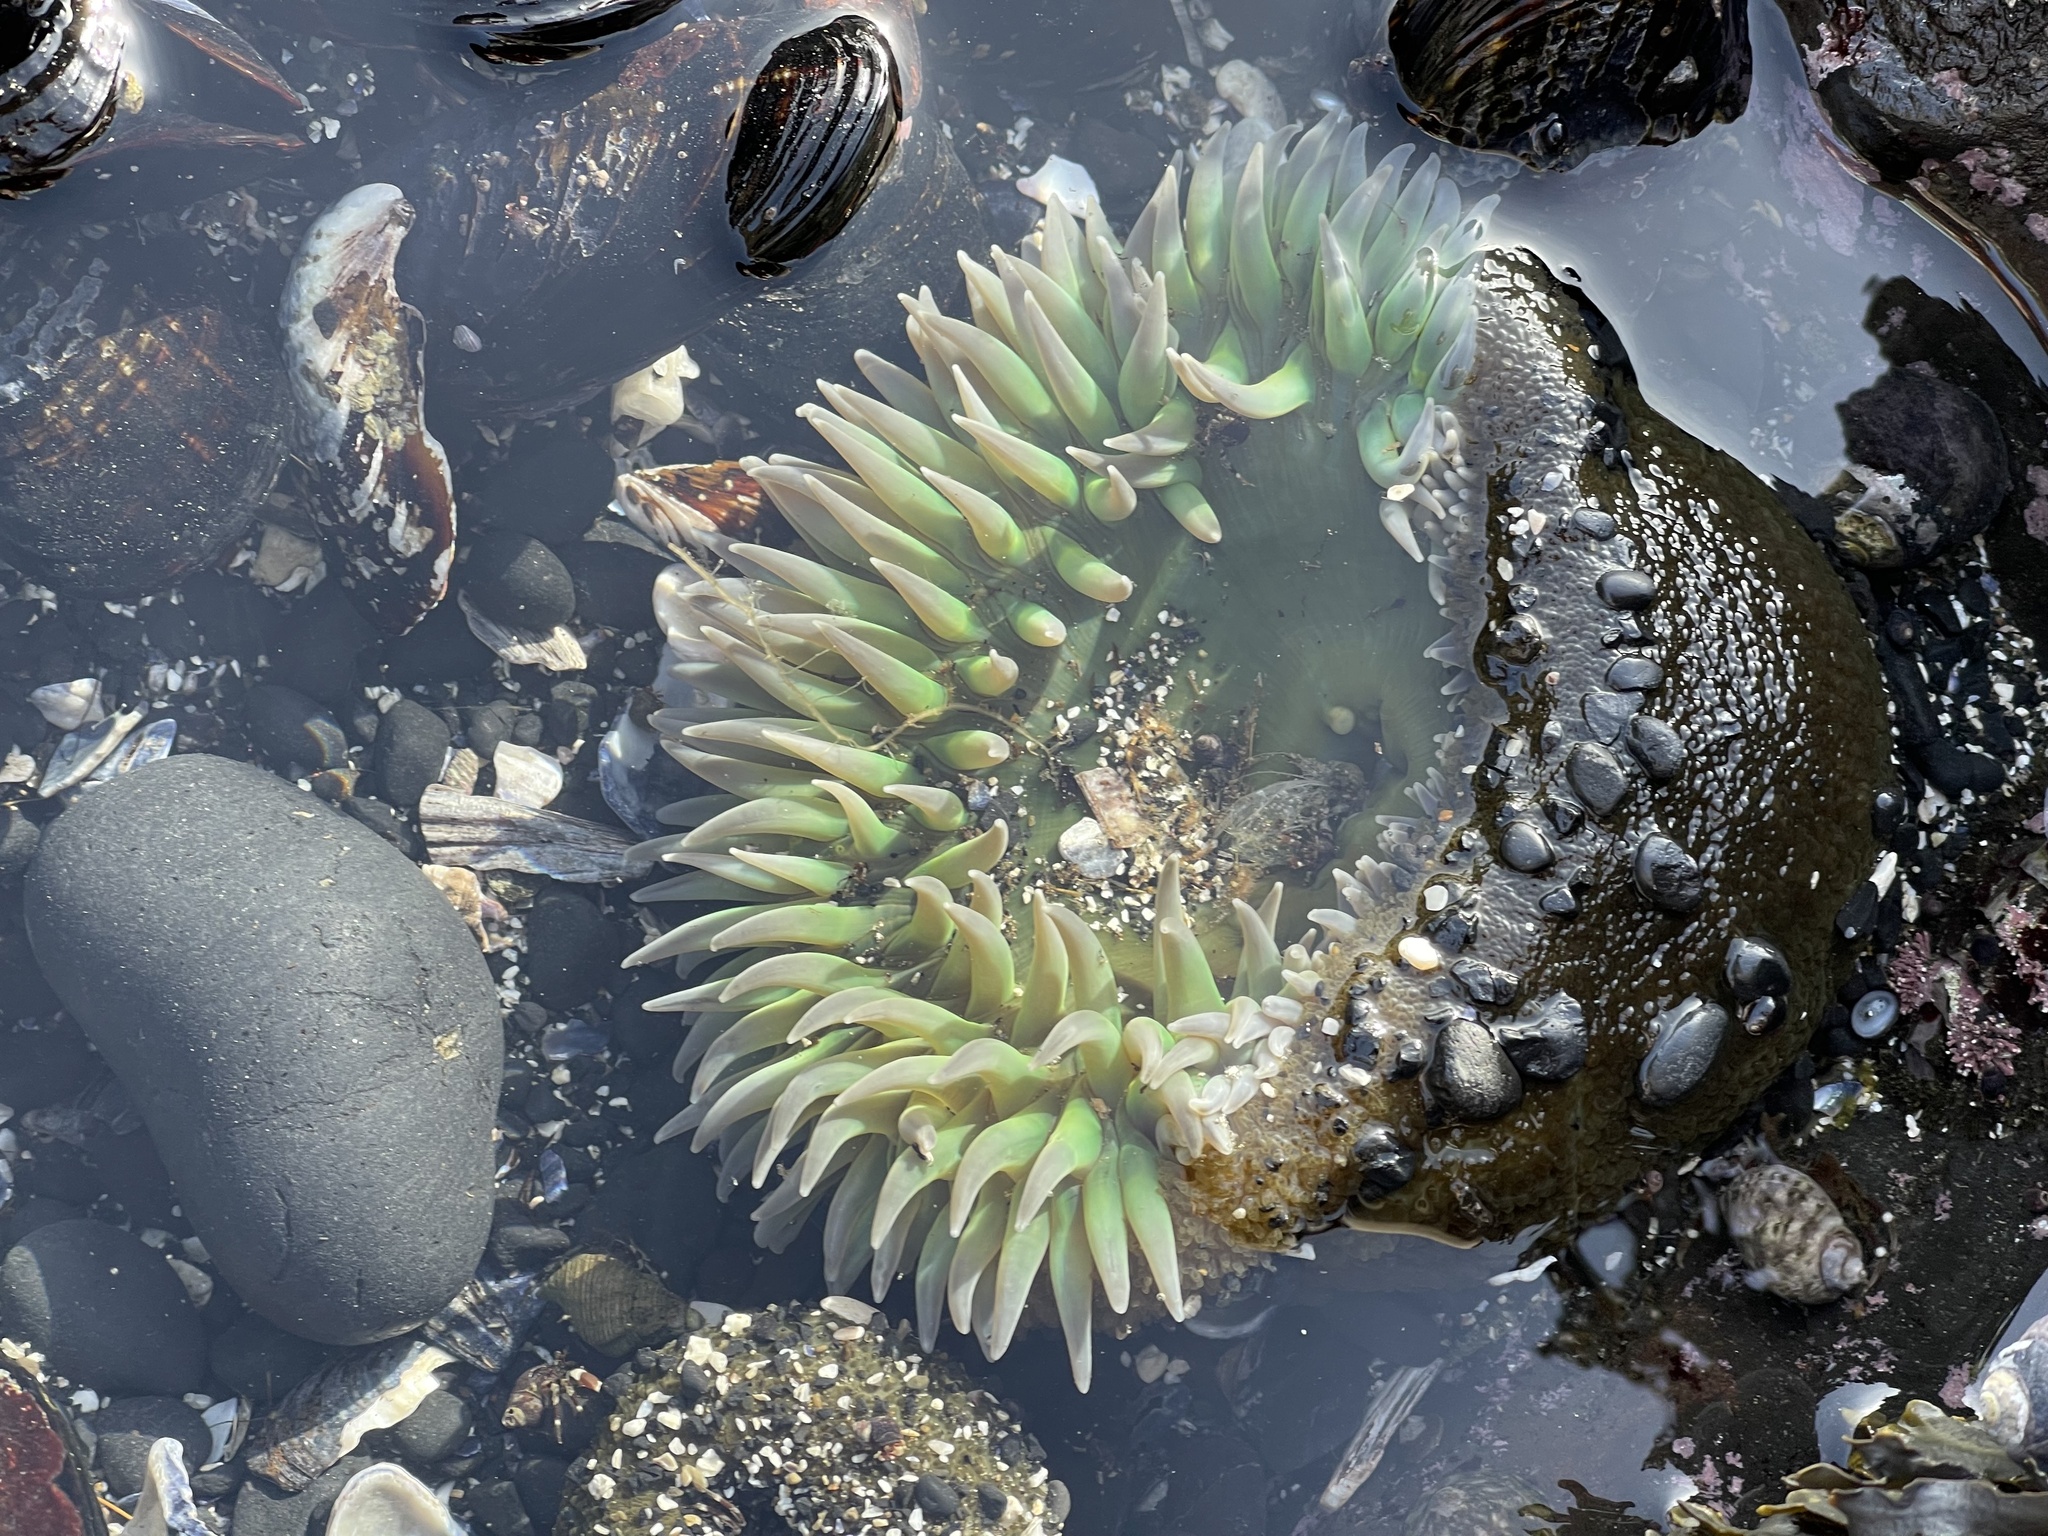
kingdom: Animalia
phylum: Cnidaria
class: Anthozoa
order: Actiniaria
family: Actiniidae
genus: Anthopleura
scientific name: Anthopleura xanthogrammica
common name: Giant green anemone
